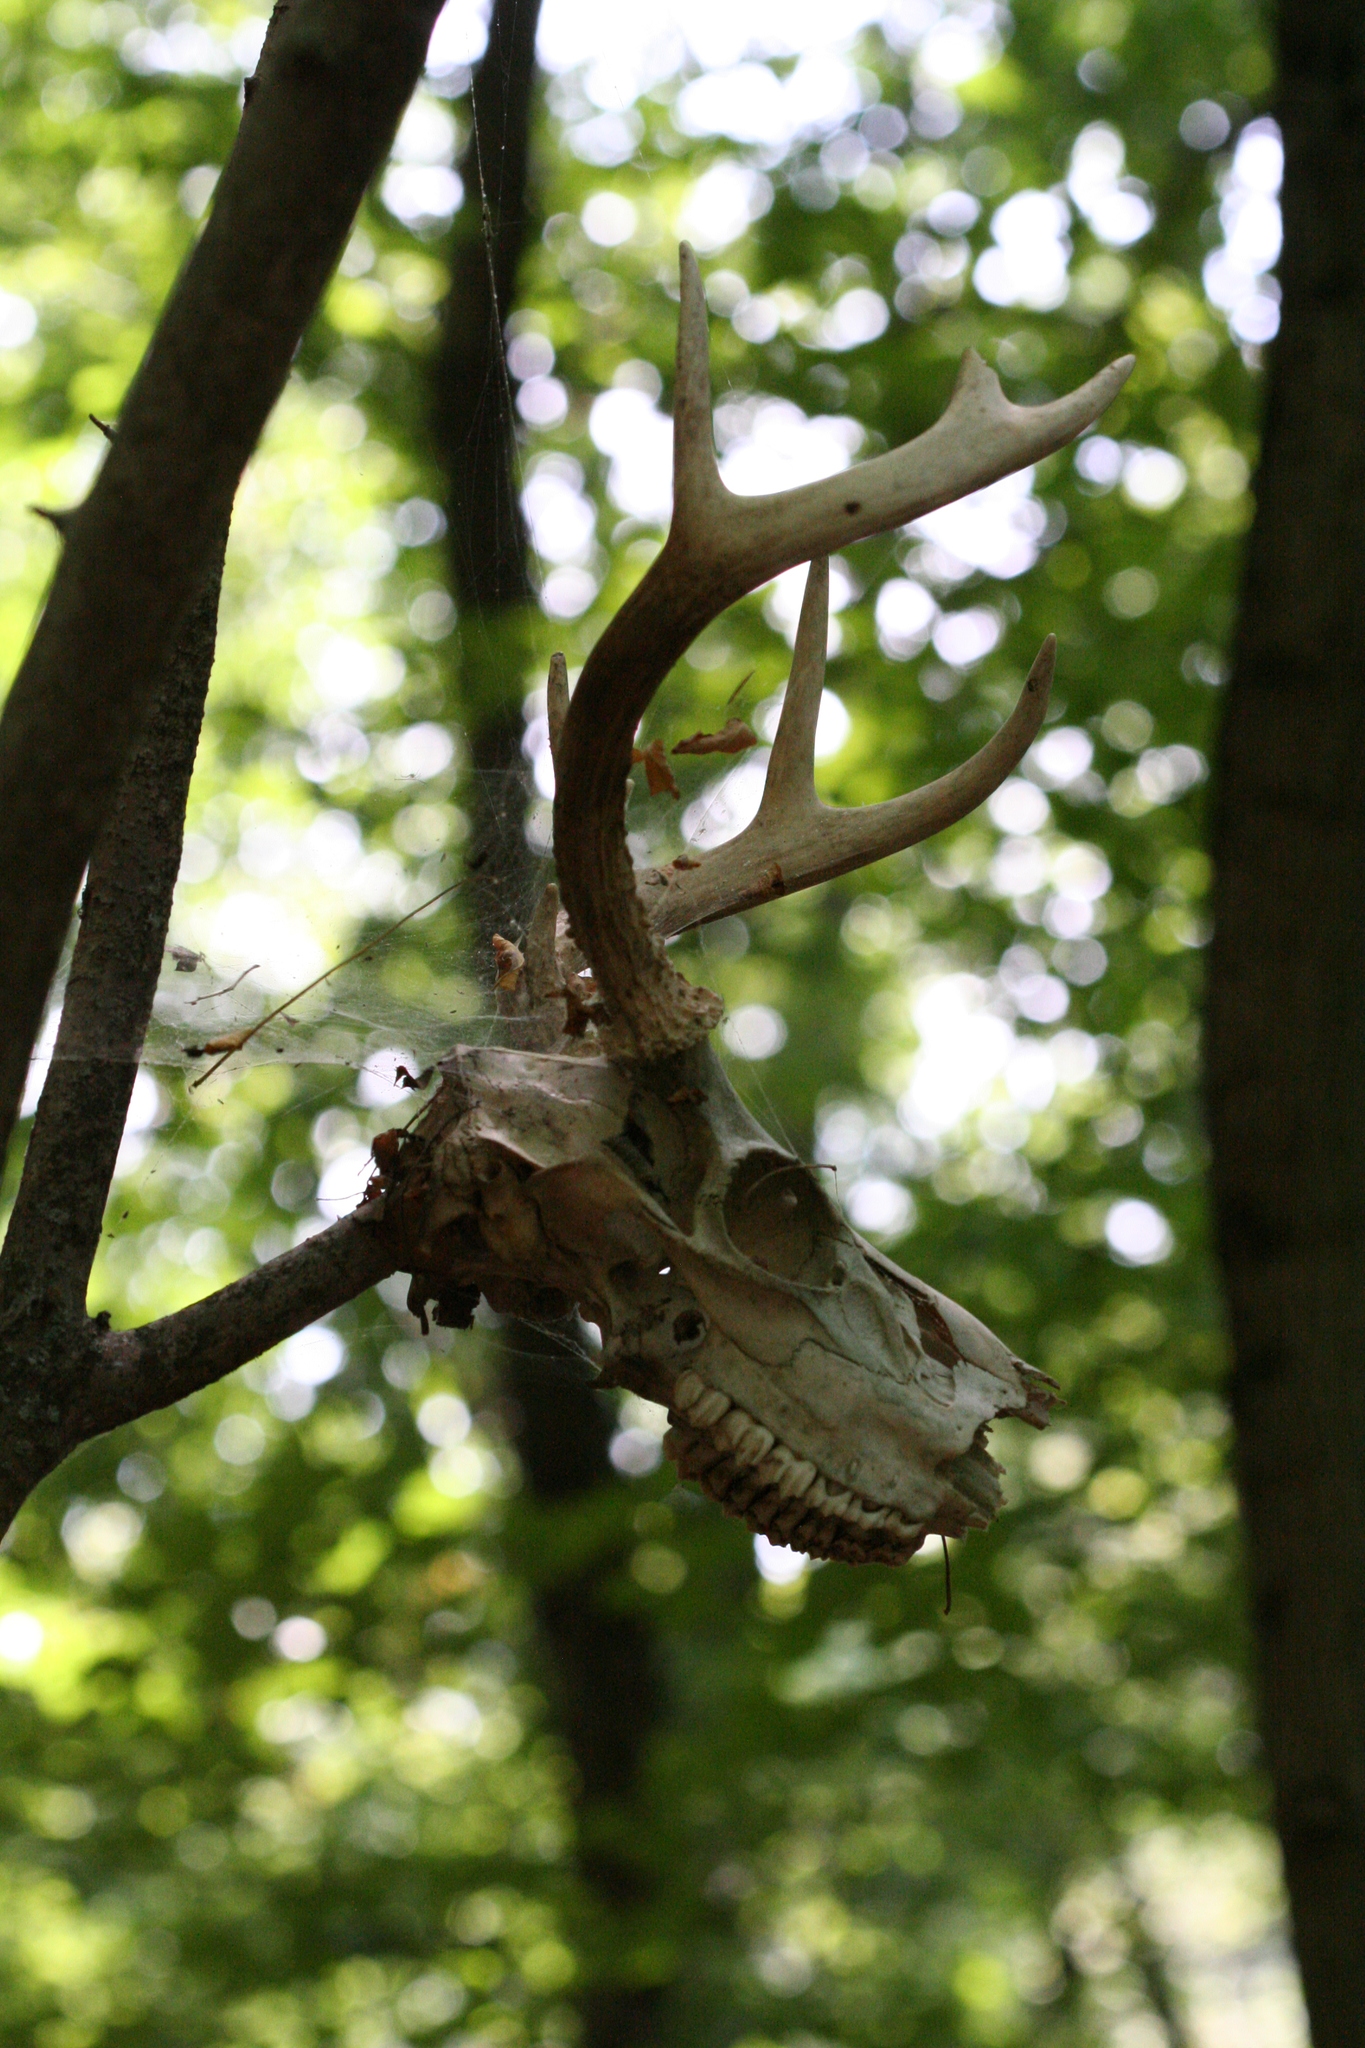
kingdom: Animalia
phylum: Chordata
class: Mammalia
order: Artiodactyla
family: Cervidae
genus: Odocoileus
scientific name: Odocoileus virginianus
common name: White-tailed deer
